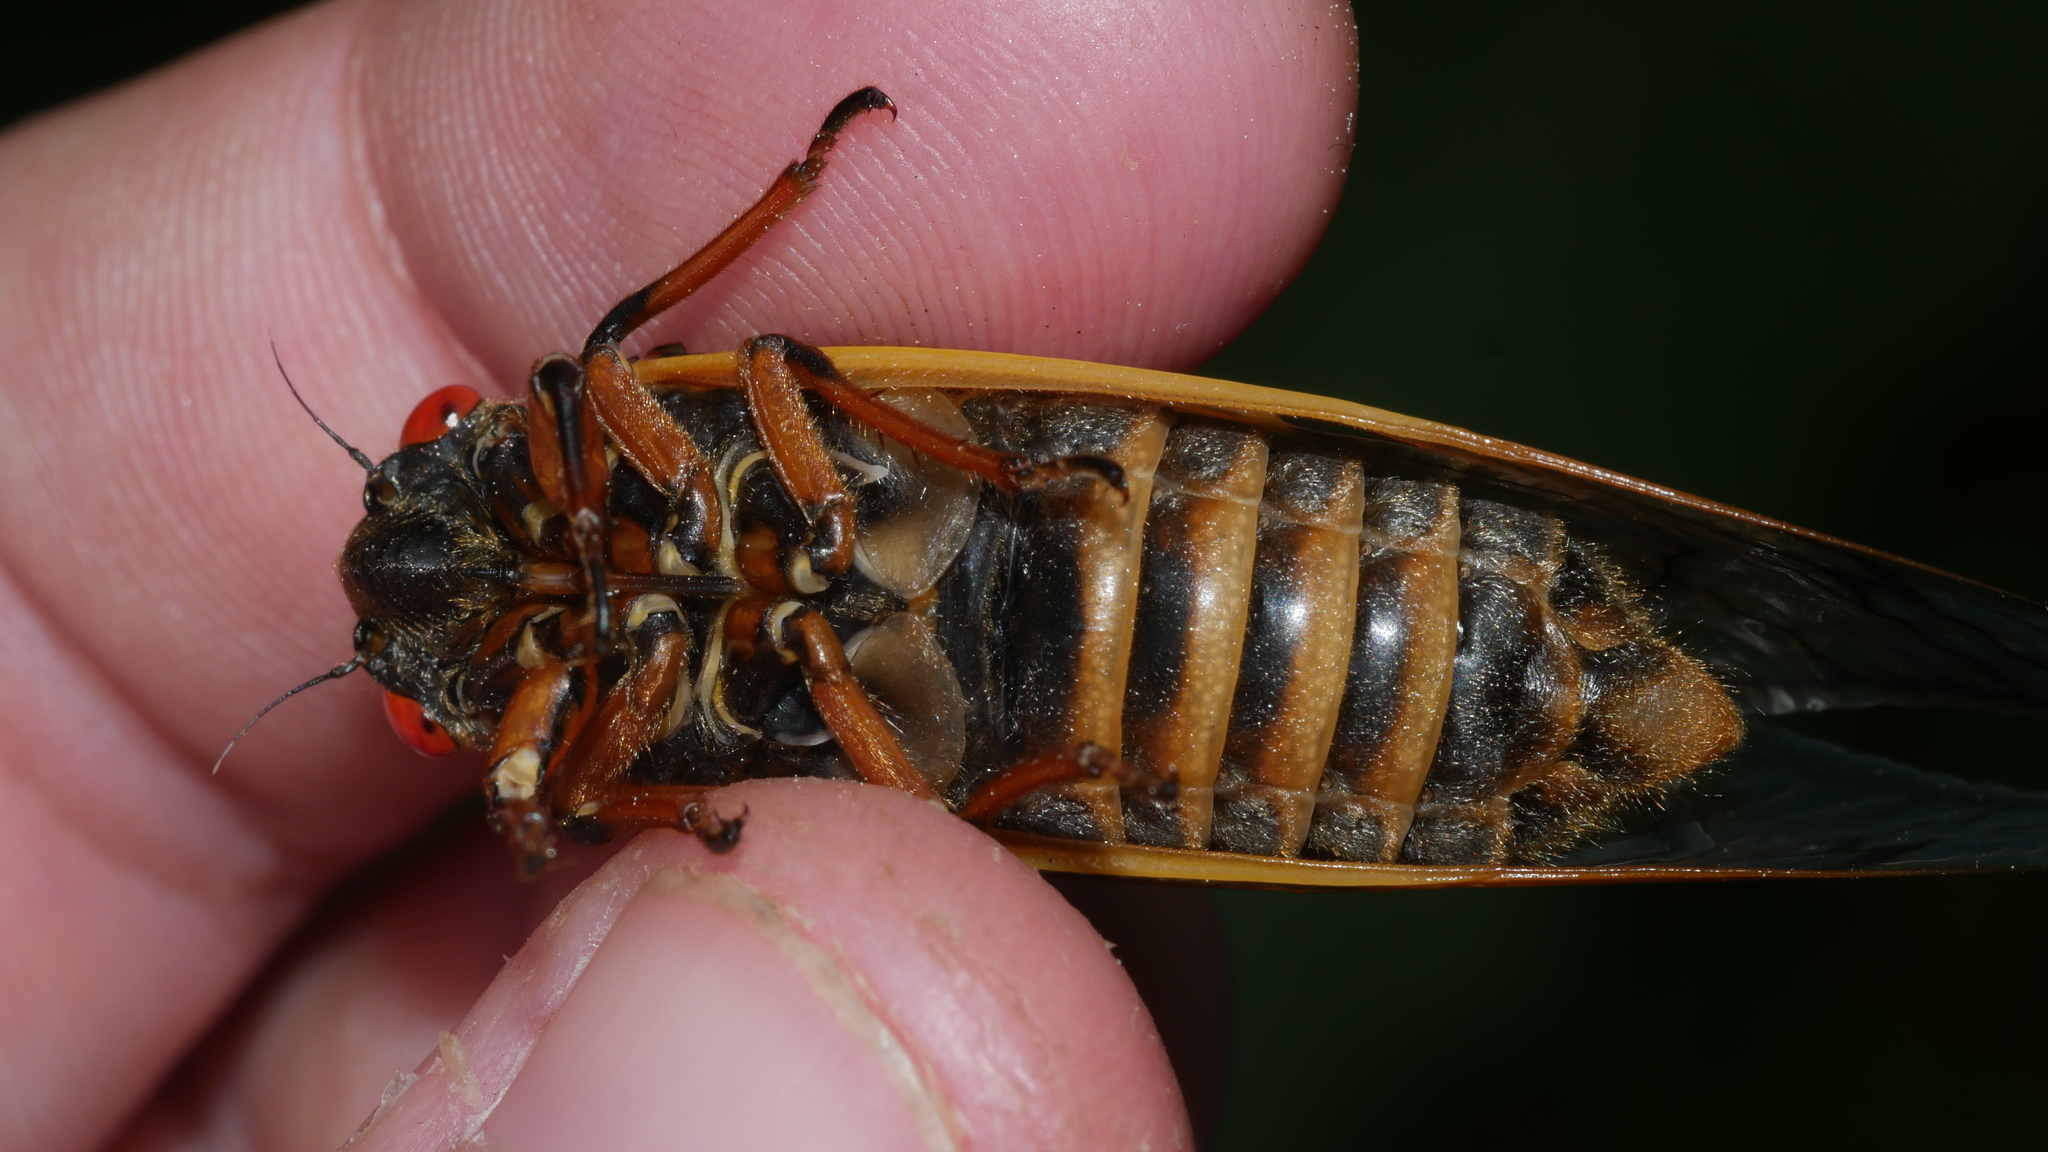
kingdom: Animalia
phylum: Arthropoda
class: Insecta
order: Hemiptera
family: Cicadidae
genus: Magicicada
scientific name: Magicicada septendecim
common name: Periodical cicada
